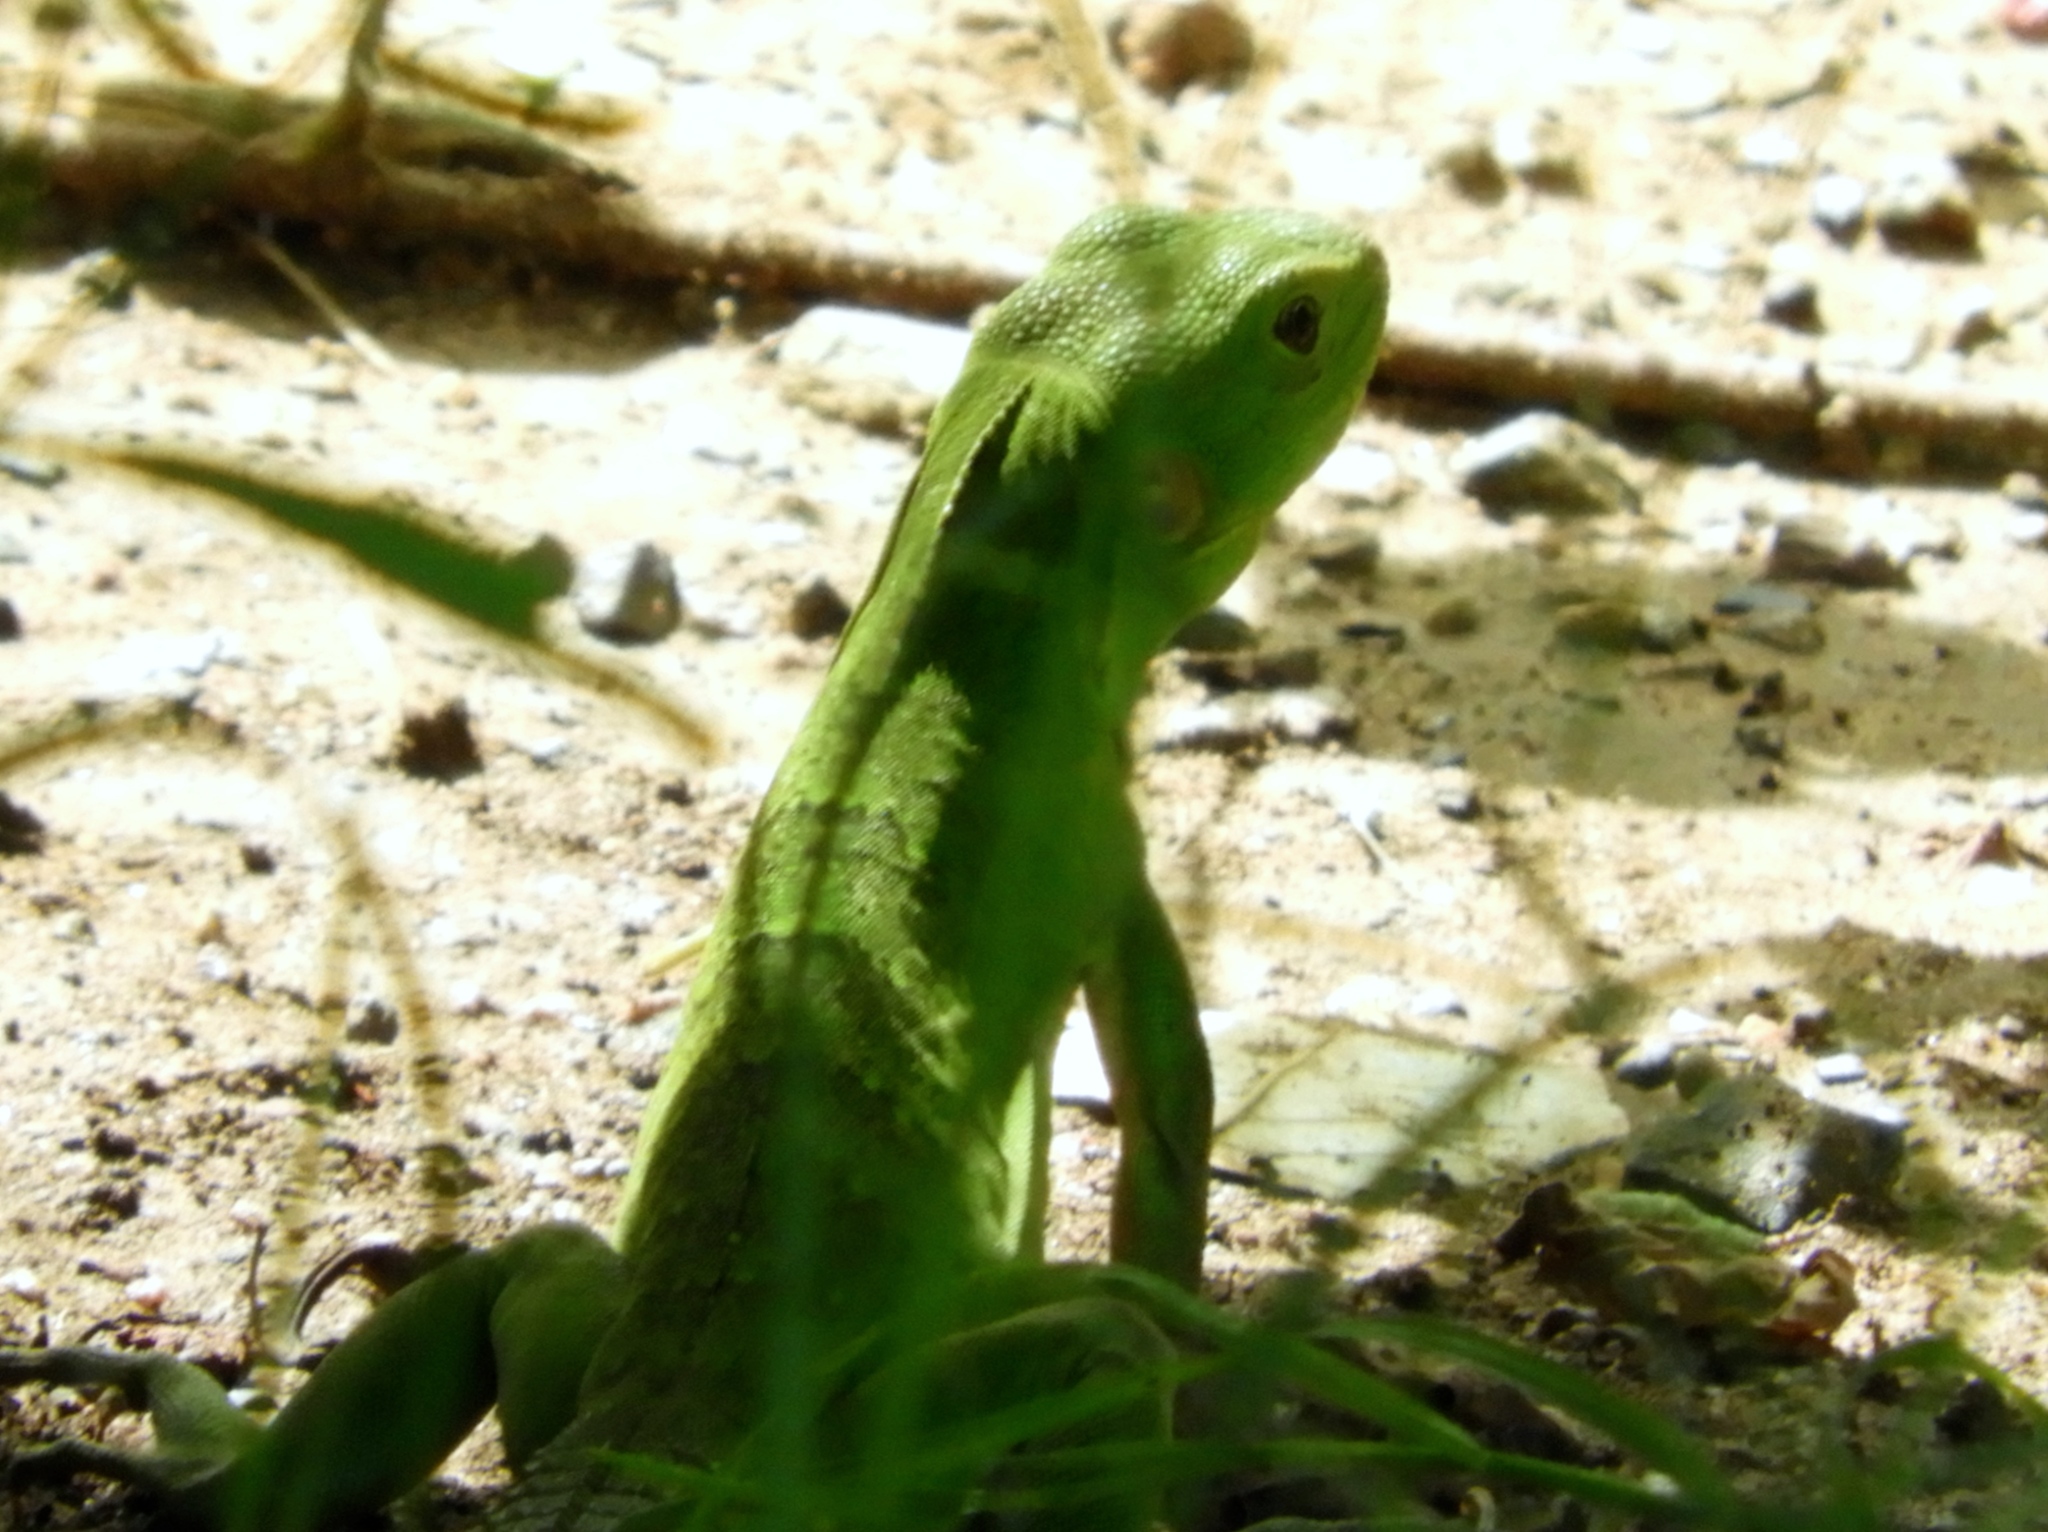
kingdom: Animalia
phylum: Chordata
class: Squamata
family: Iguanidae
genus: Ctenosaura
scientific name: Ctenosaura pectinata
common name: Guerreran spiny-tailed iguana
